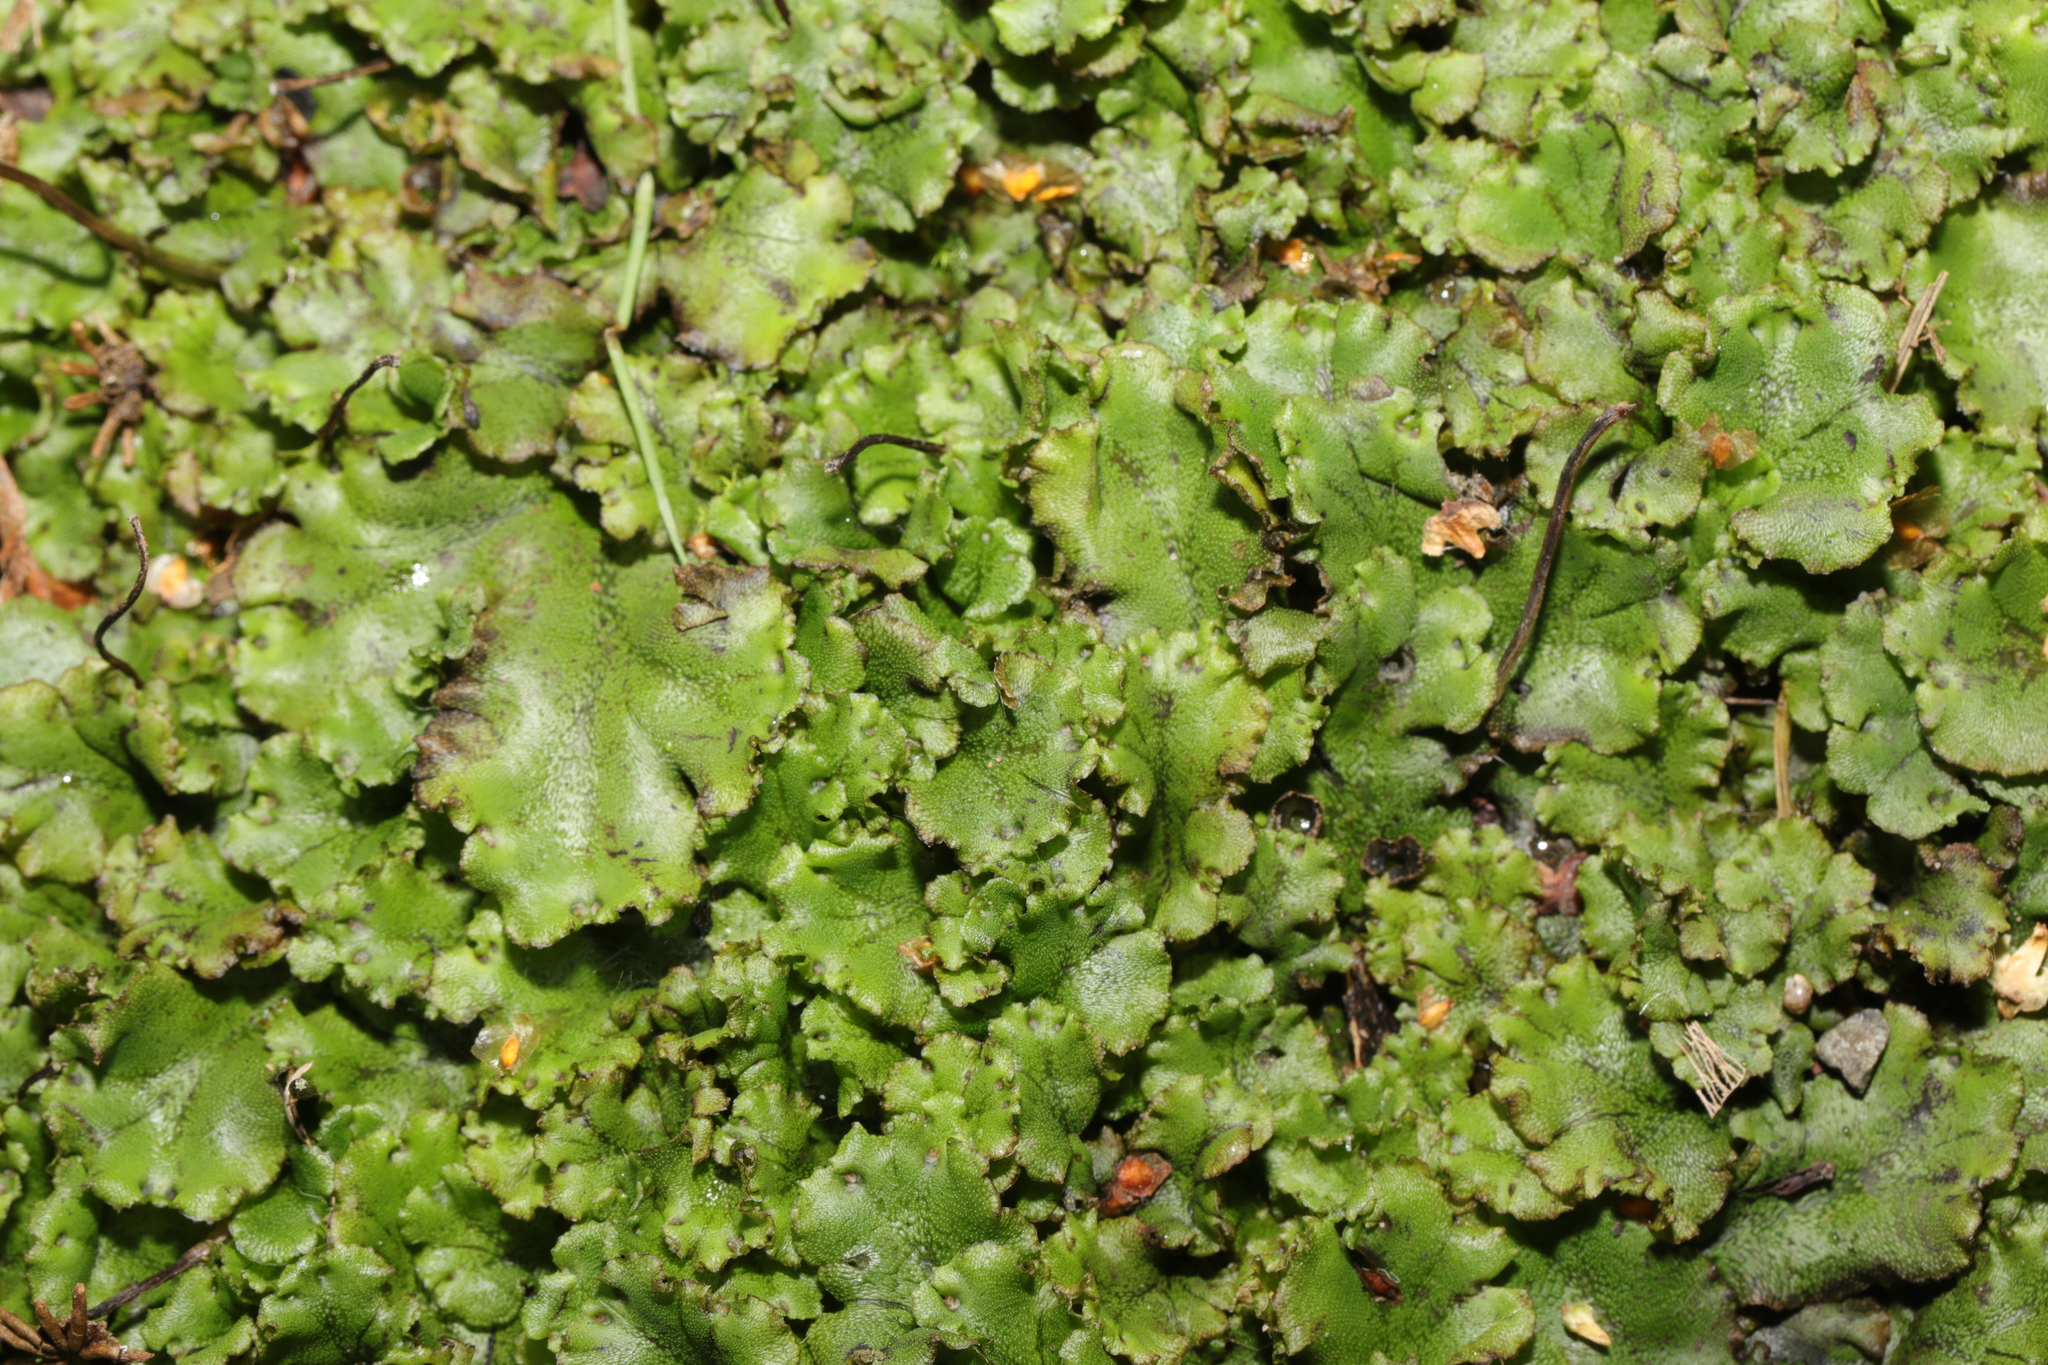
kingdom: Plantae
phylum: Marchantiophyta
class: Marchantiopsida
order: Marchantiales
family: Marchantiaceae
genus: Marchantia
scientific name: Marchantia polymorpha
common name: Common liverwort
